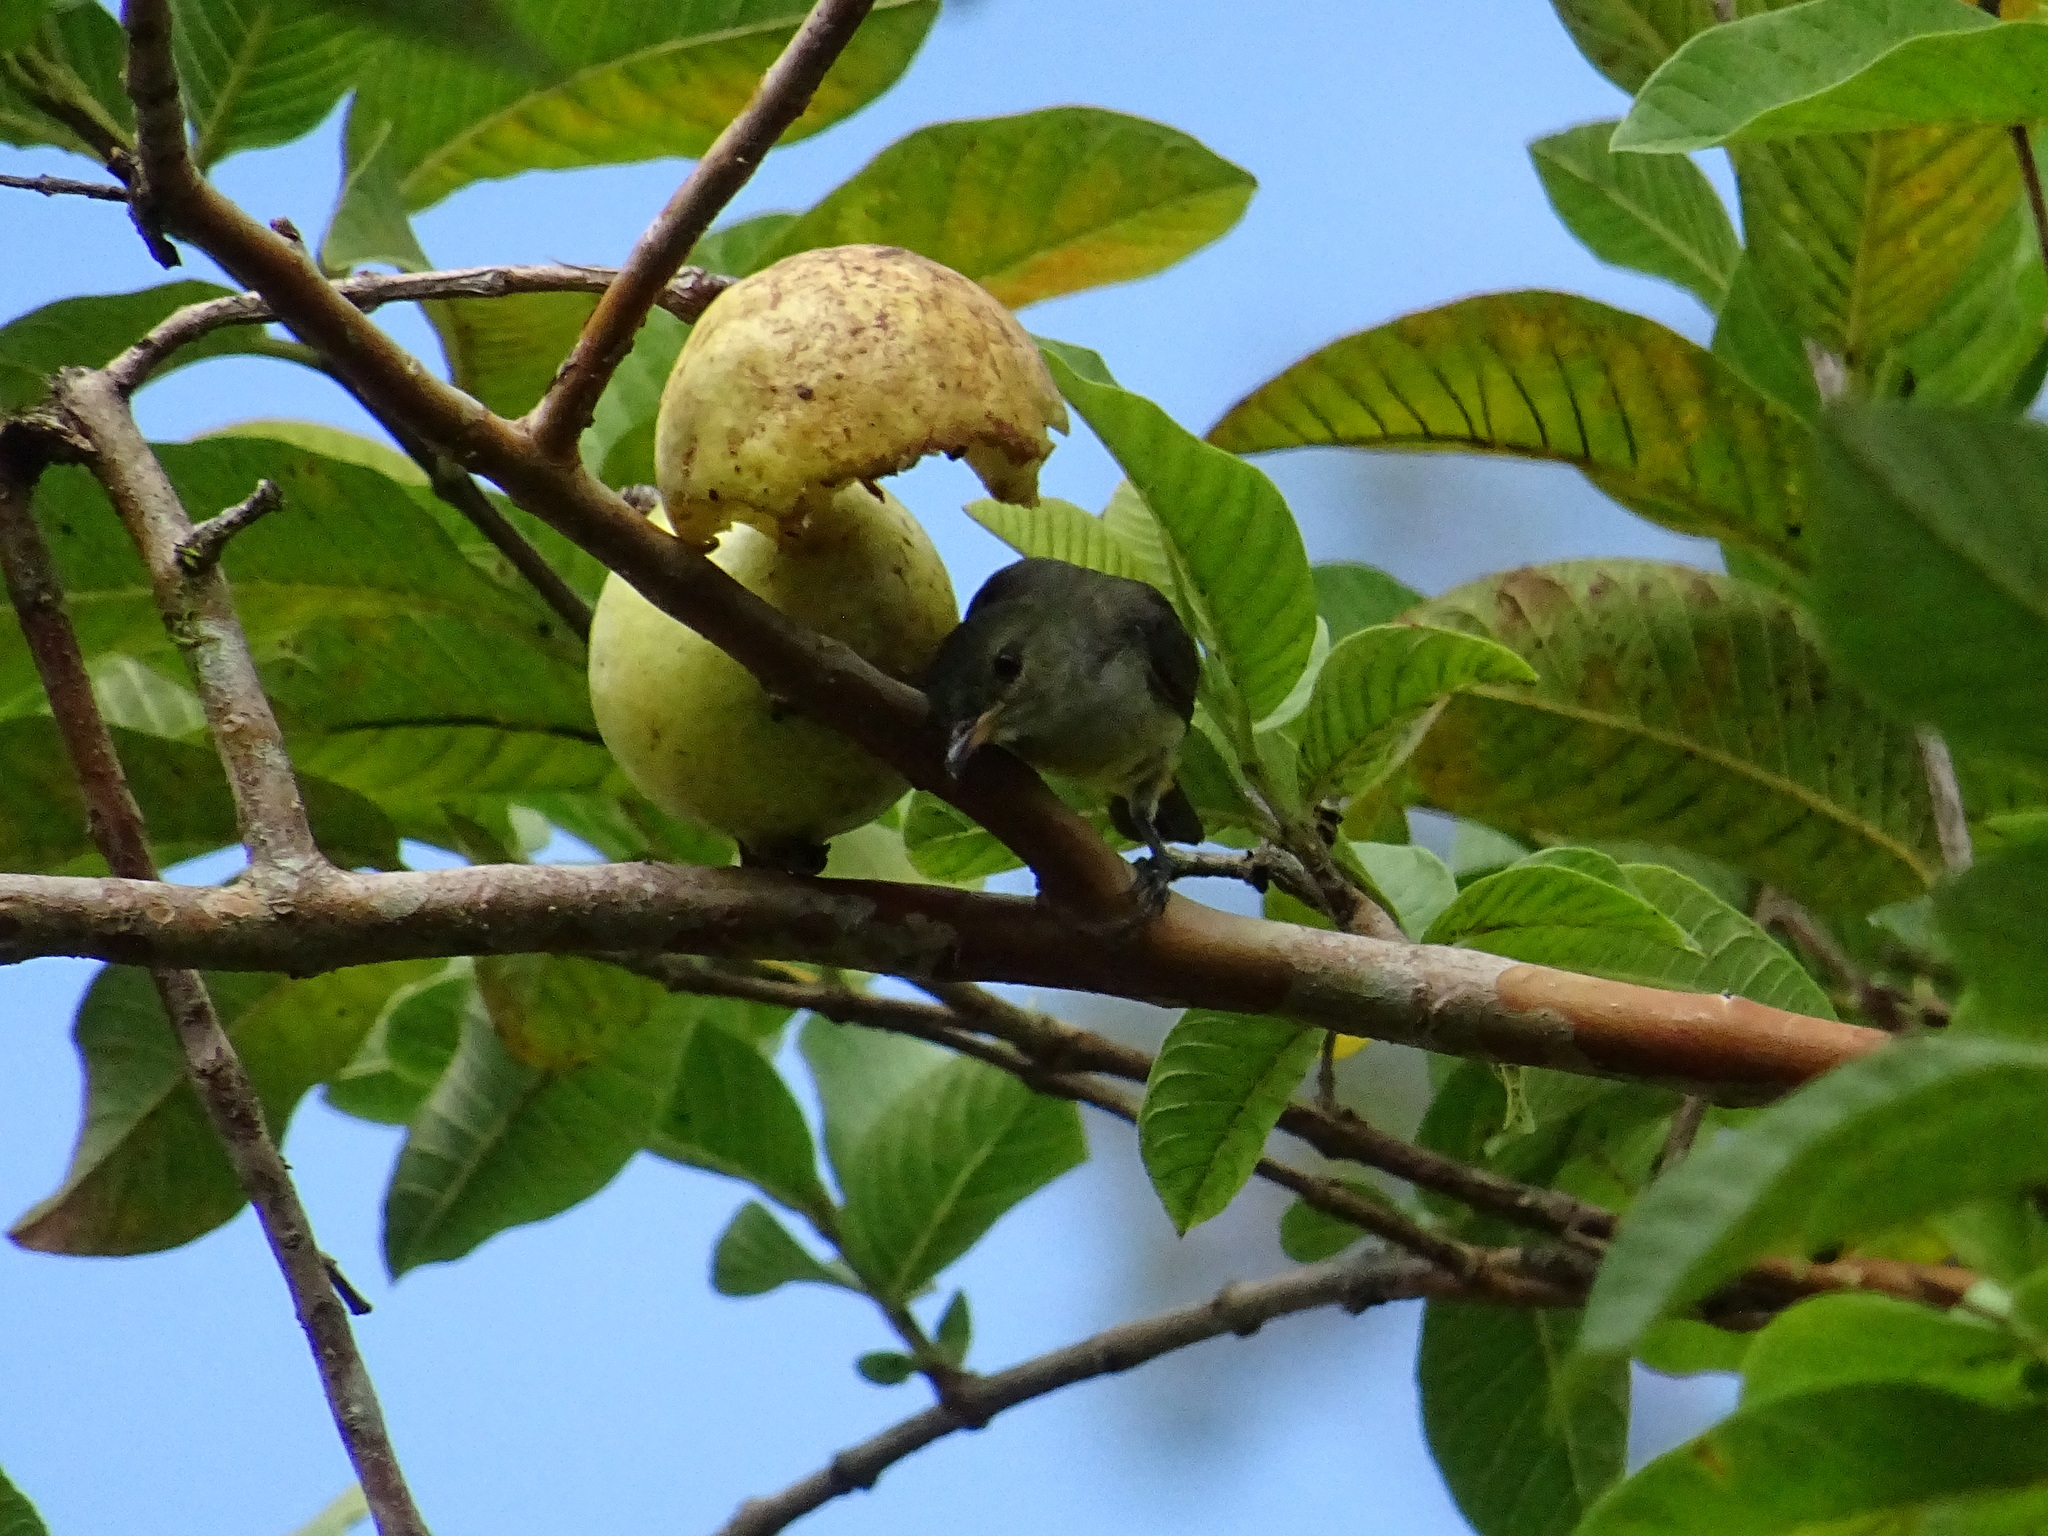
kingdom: Animalia
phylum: Chordata
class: Aves
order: Passeriformes
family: Dicaeidae
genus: Dicaeum
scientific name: Dicaeum trigonostigma
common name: Orange-bellied flowerpecker
